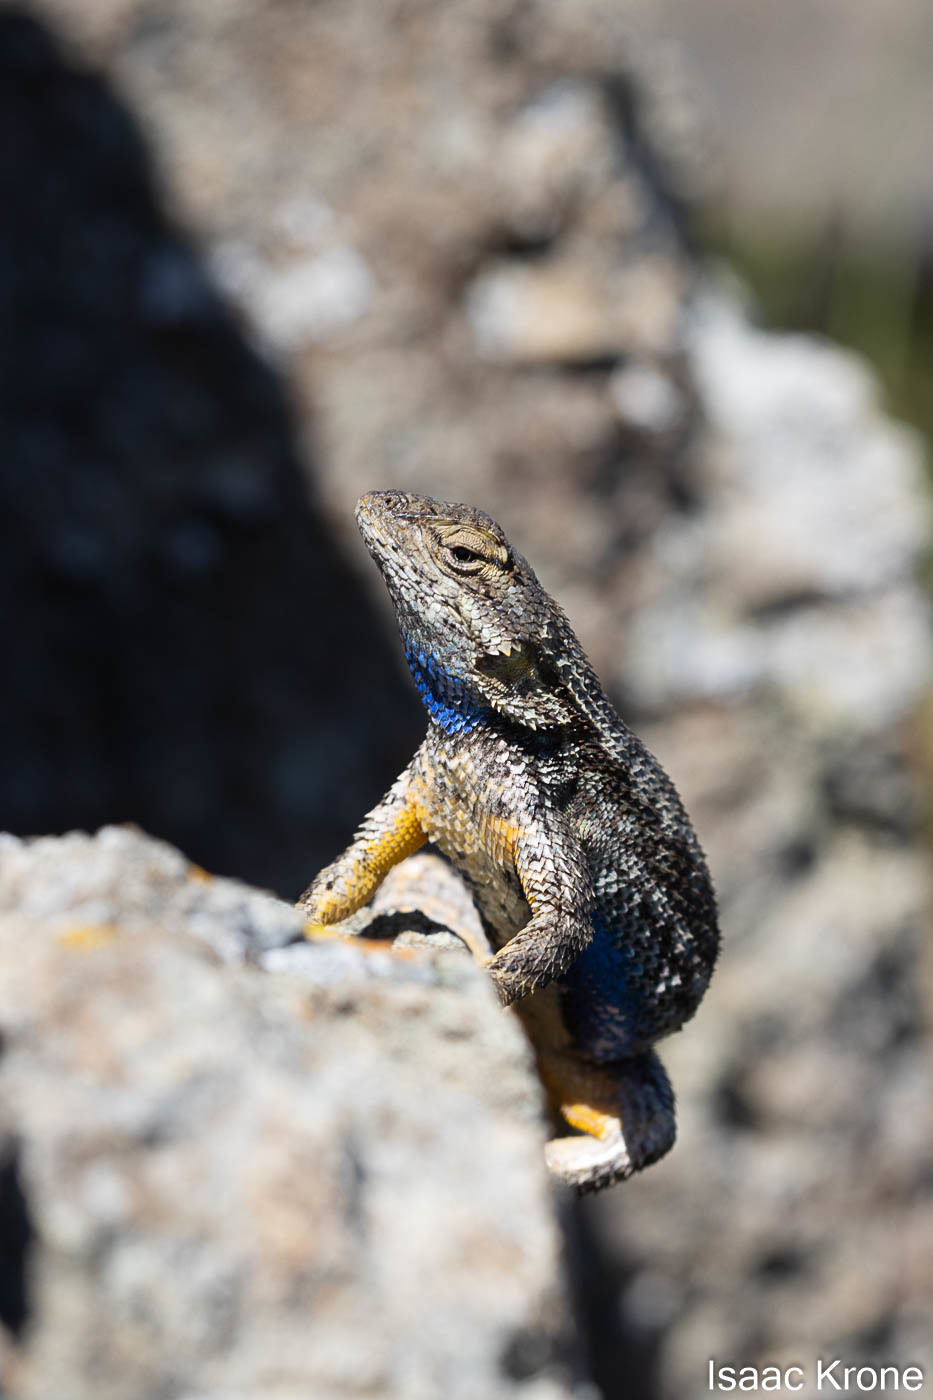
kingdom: Animalia
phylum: Chordata
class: Squamata
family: Phrynosomatidae
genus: Sceloporus
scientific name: Sceloporus occidentalis
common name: Western fence lizard
